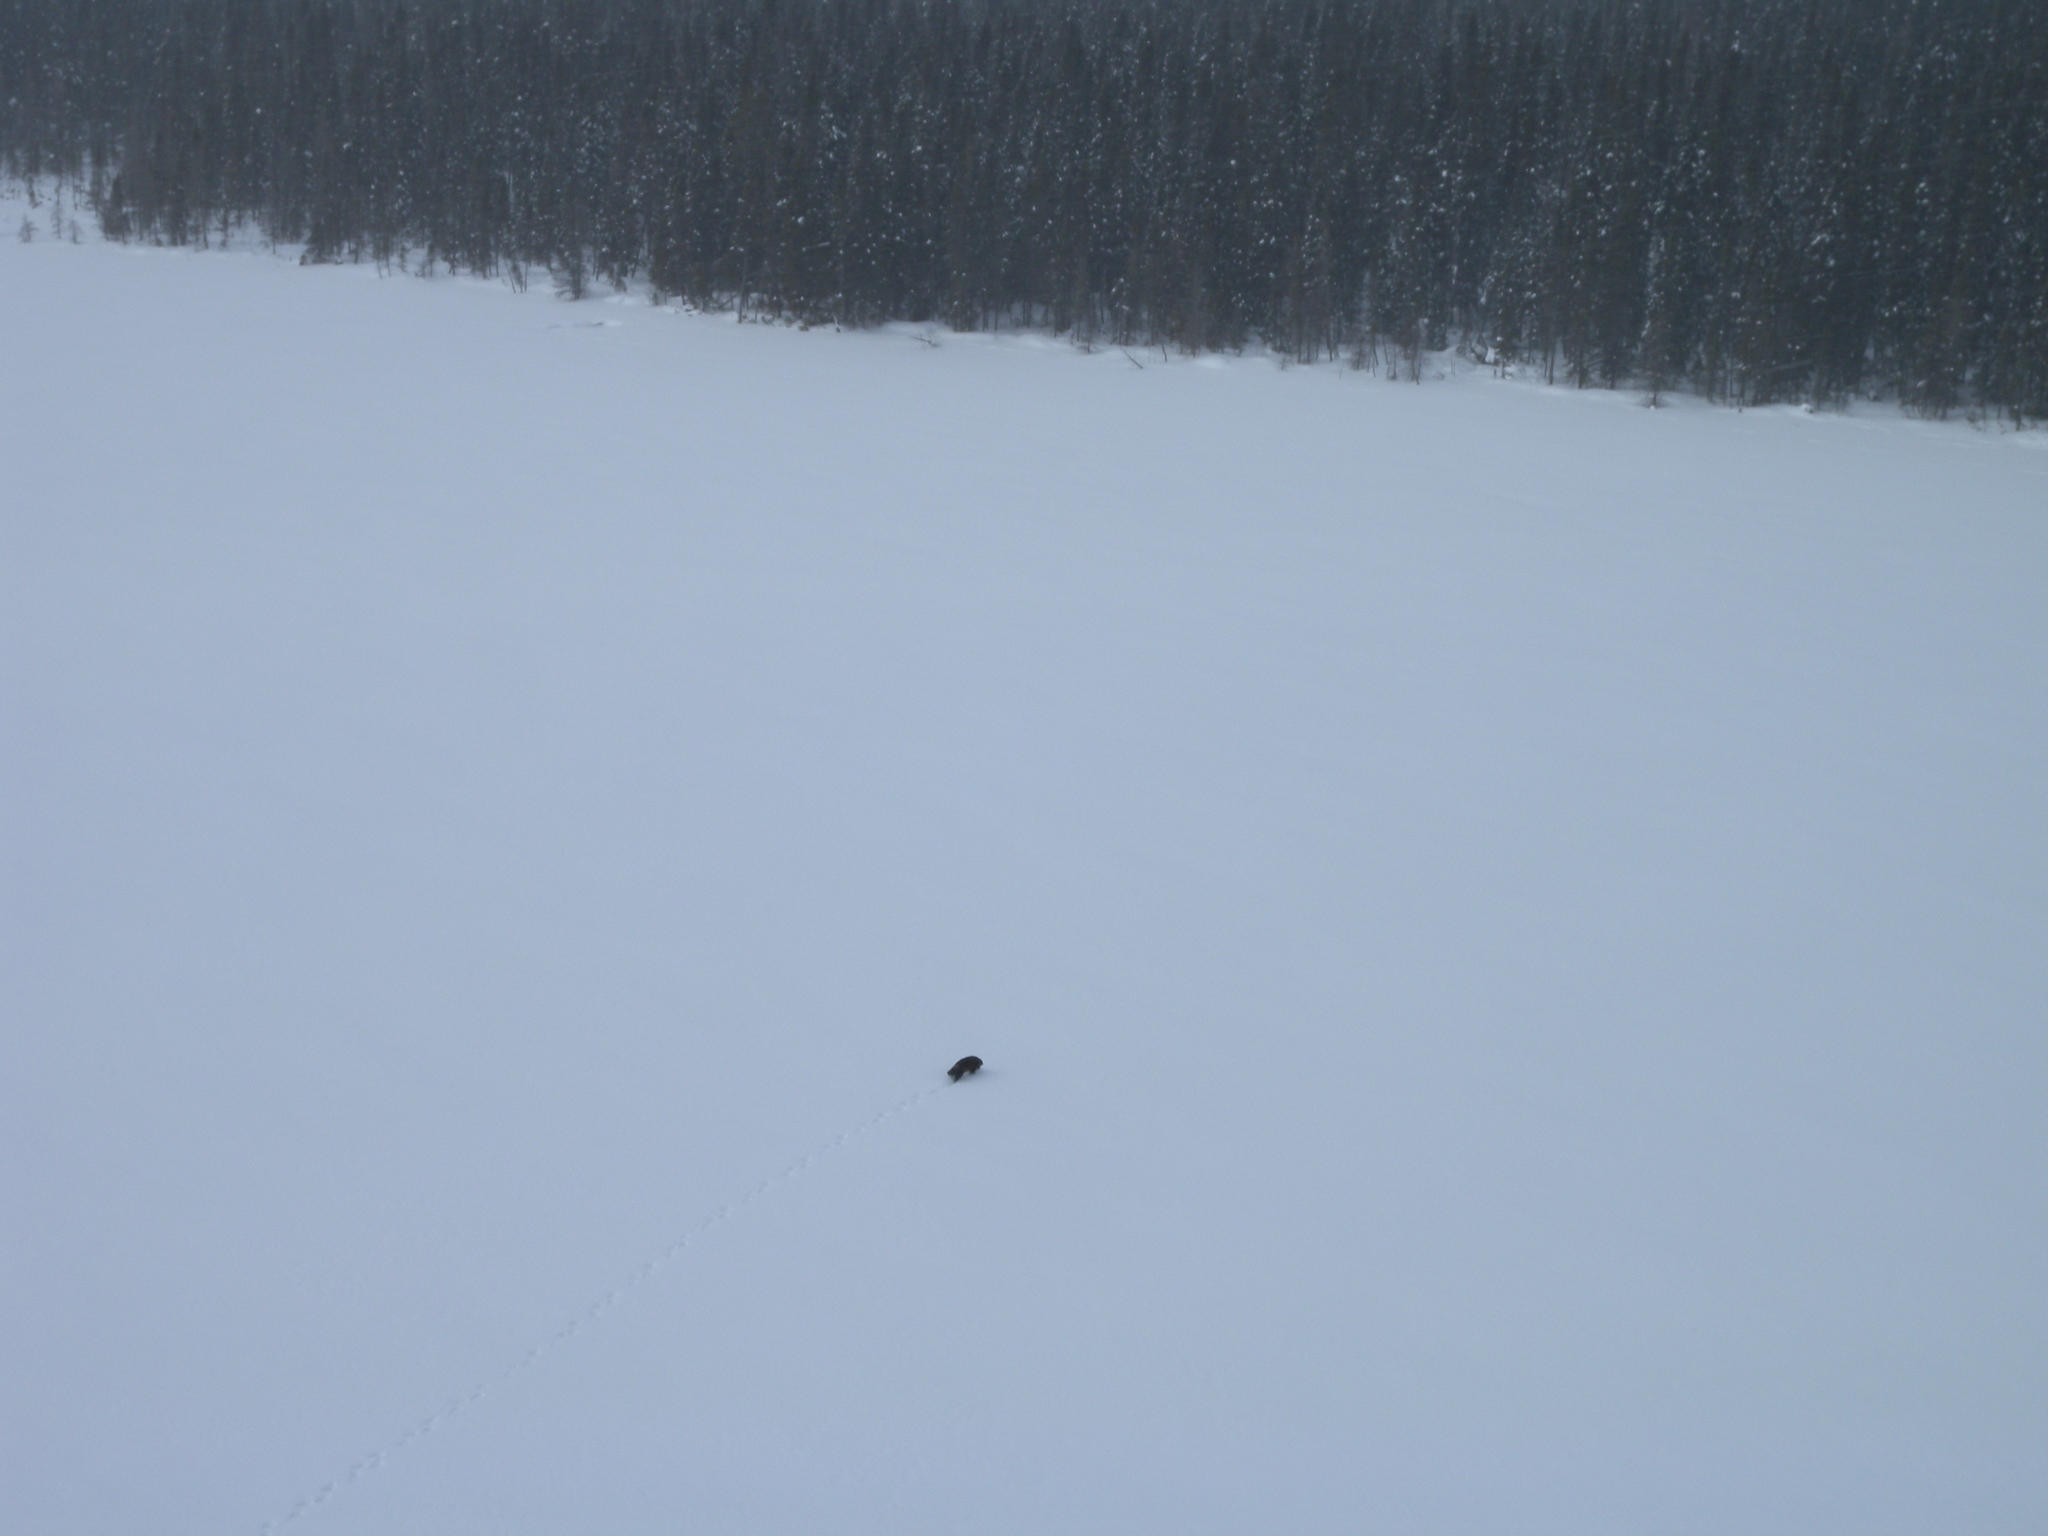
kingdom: Animalia
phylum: Chordata
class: Mammalia
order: Carnivora
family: Mustelidae
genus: Gulo
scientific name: Gulo gulo
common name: Wolverine
